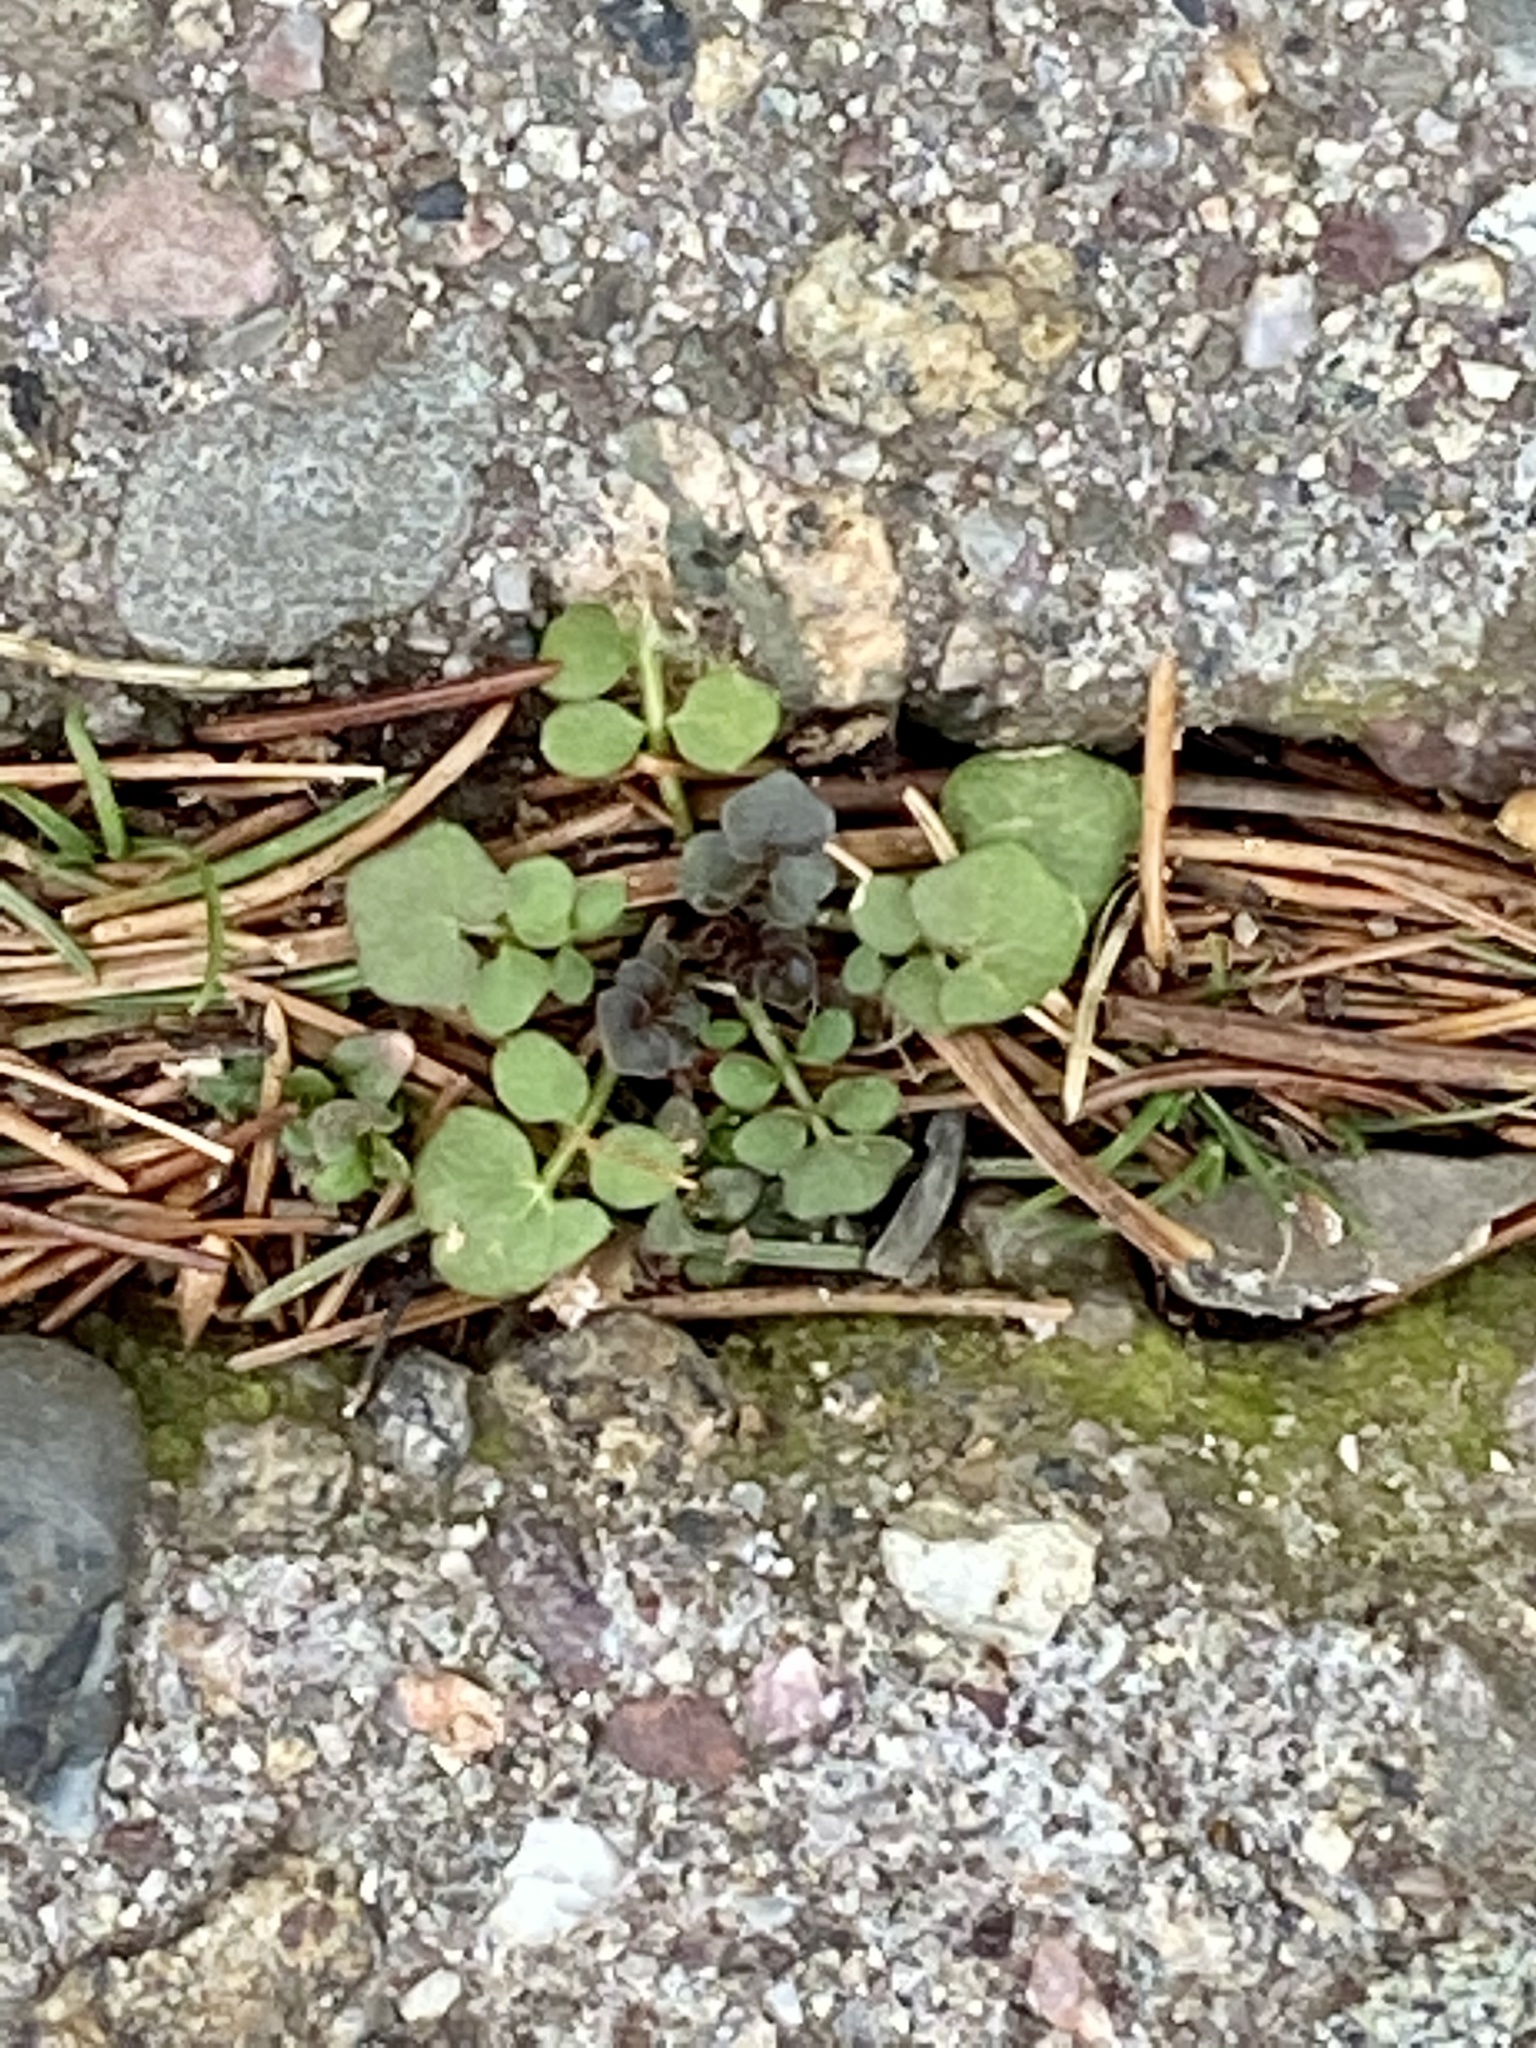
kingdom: Plantae
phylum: Tracheophyta
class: Magnoliopsida
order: Brassicales
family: Brassicaceae
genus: Cardamine
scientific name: Cardamine hirsuta
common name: Hairy bittercress
